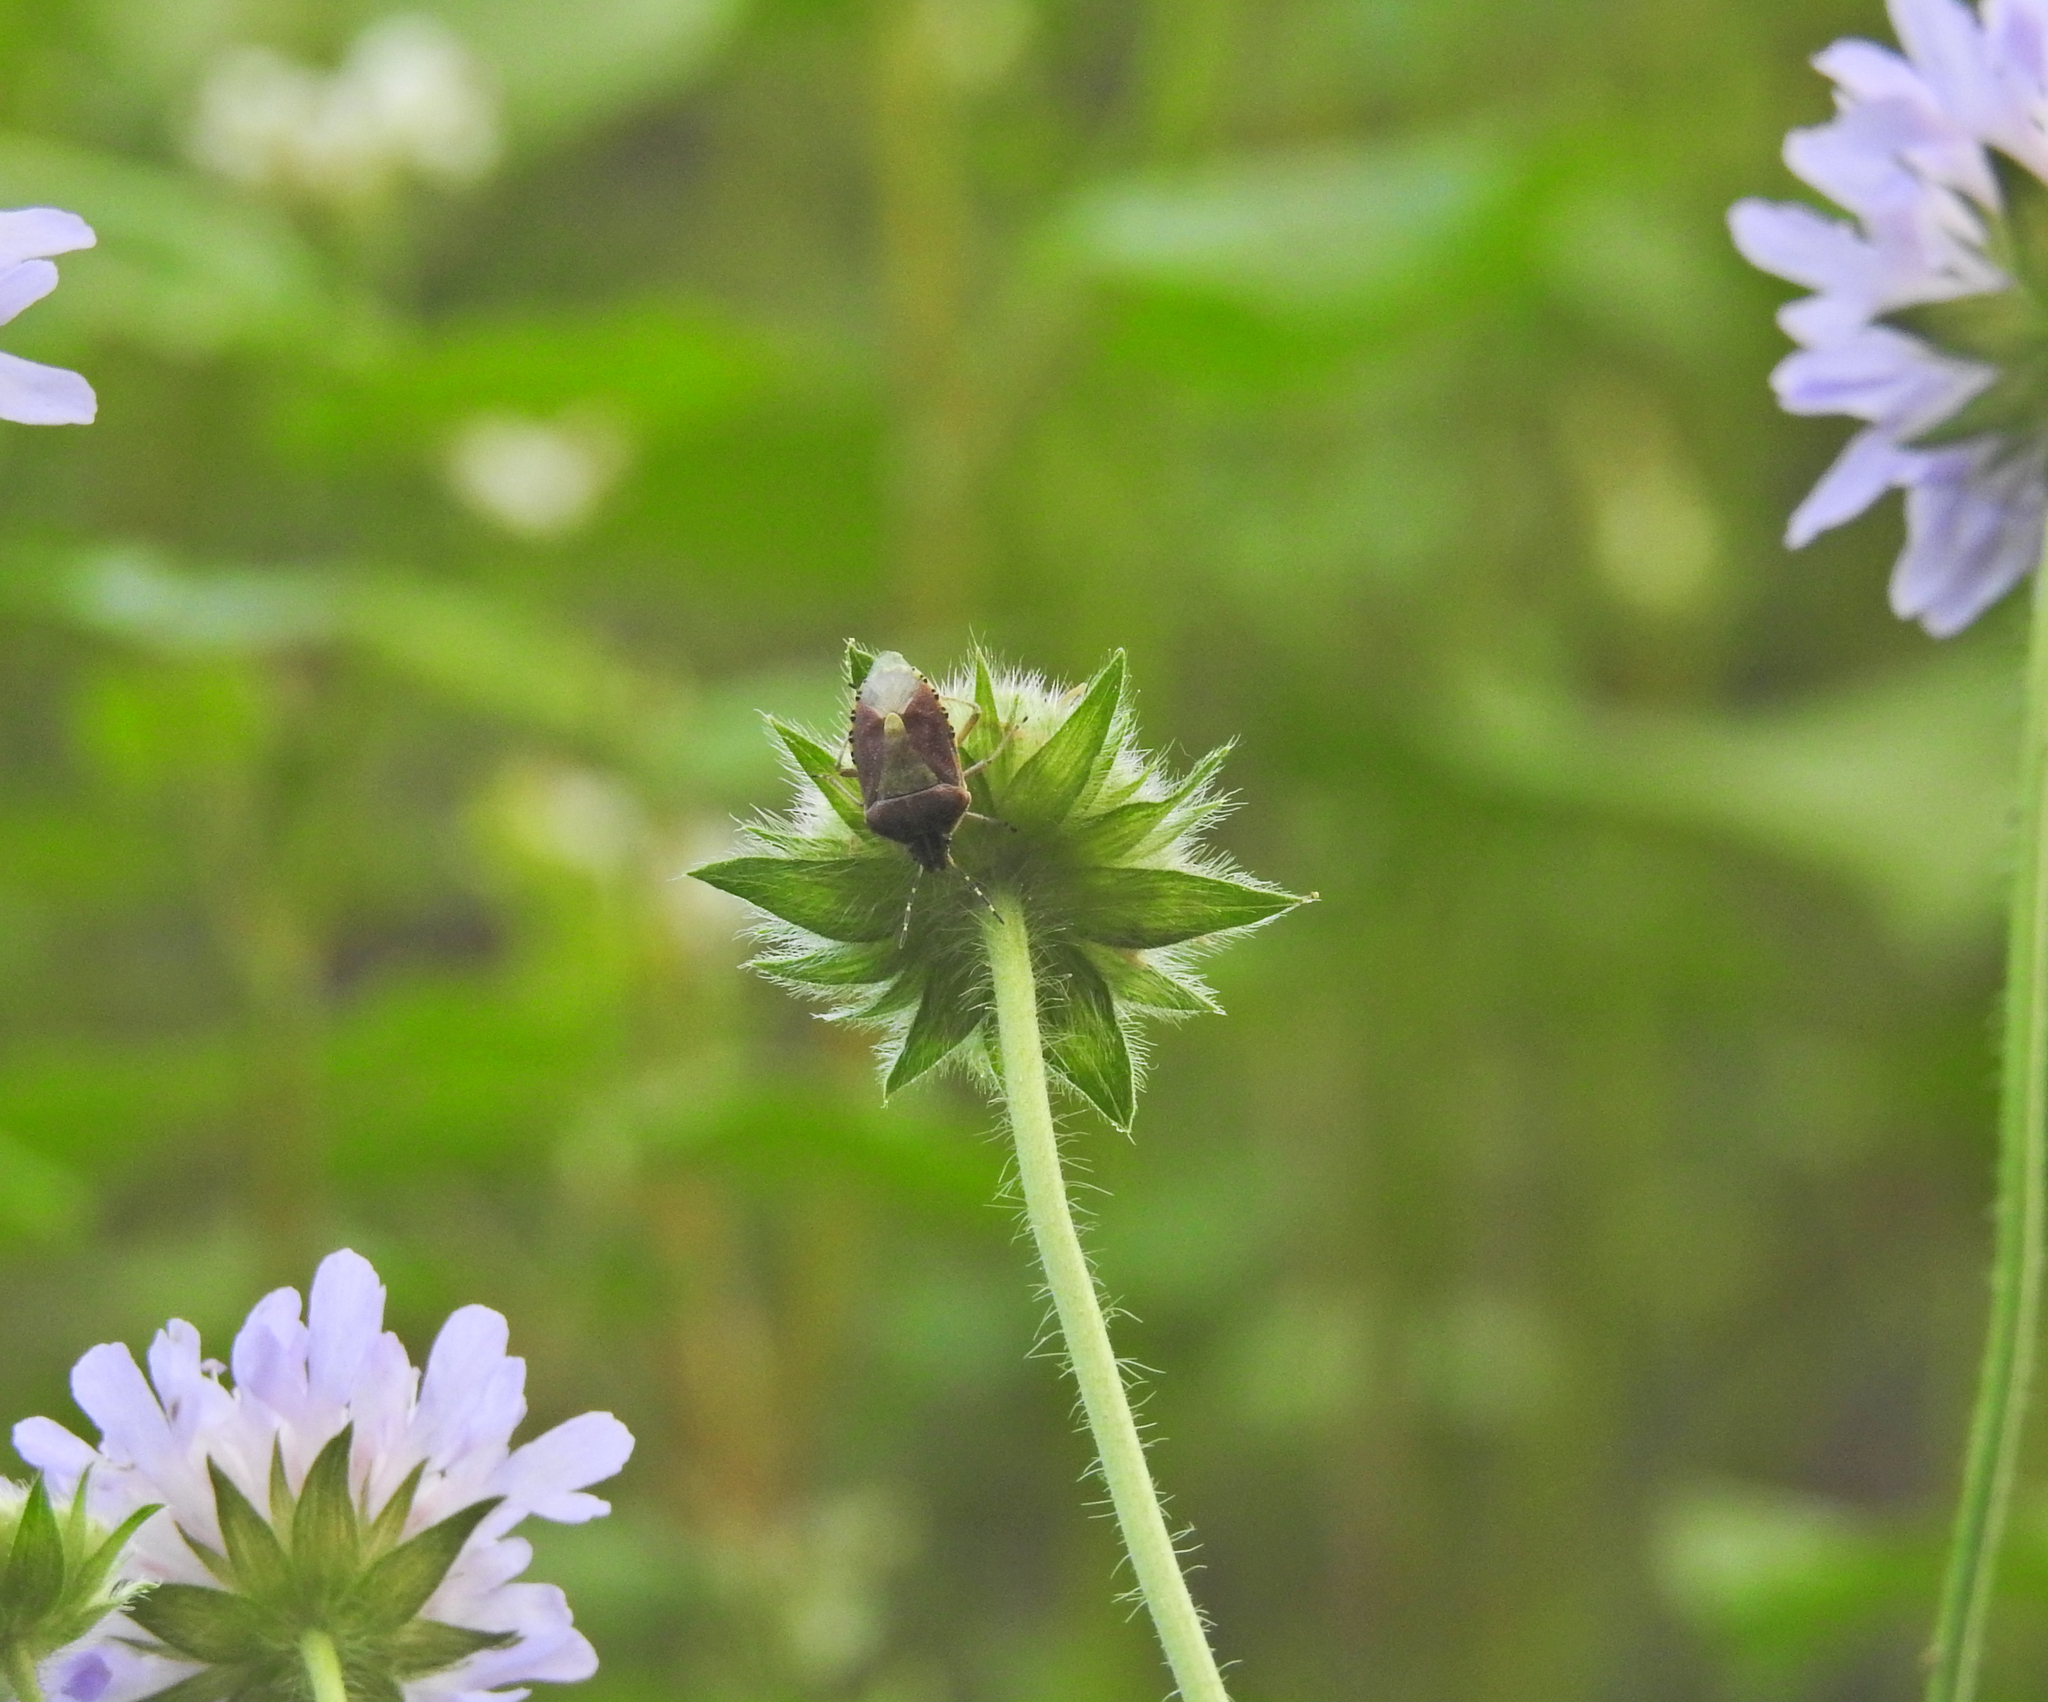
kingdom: Animalia
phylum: Arthropoda
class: Insecta
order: Hemiptera
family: Pentatomidae
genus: Dolycoris
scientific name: Dolycoris baccarum
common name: Sloe bug
